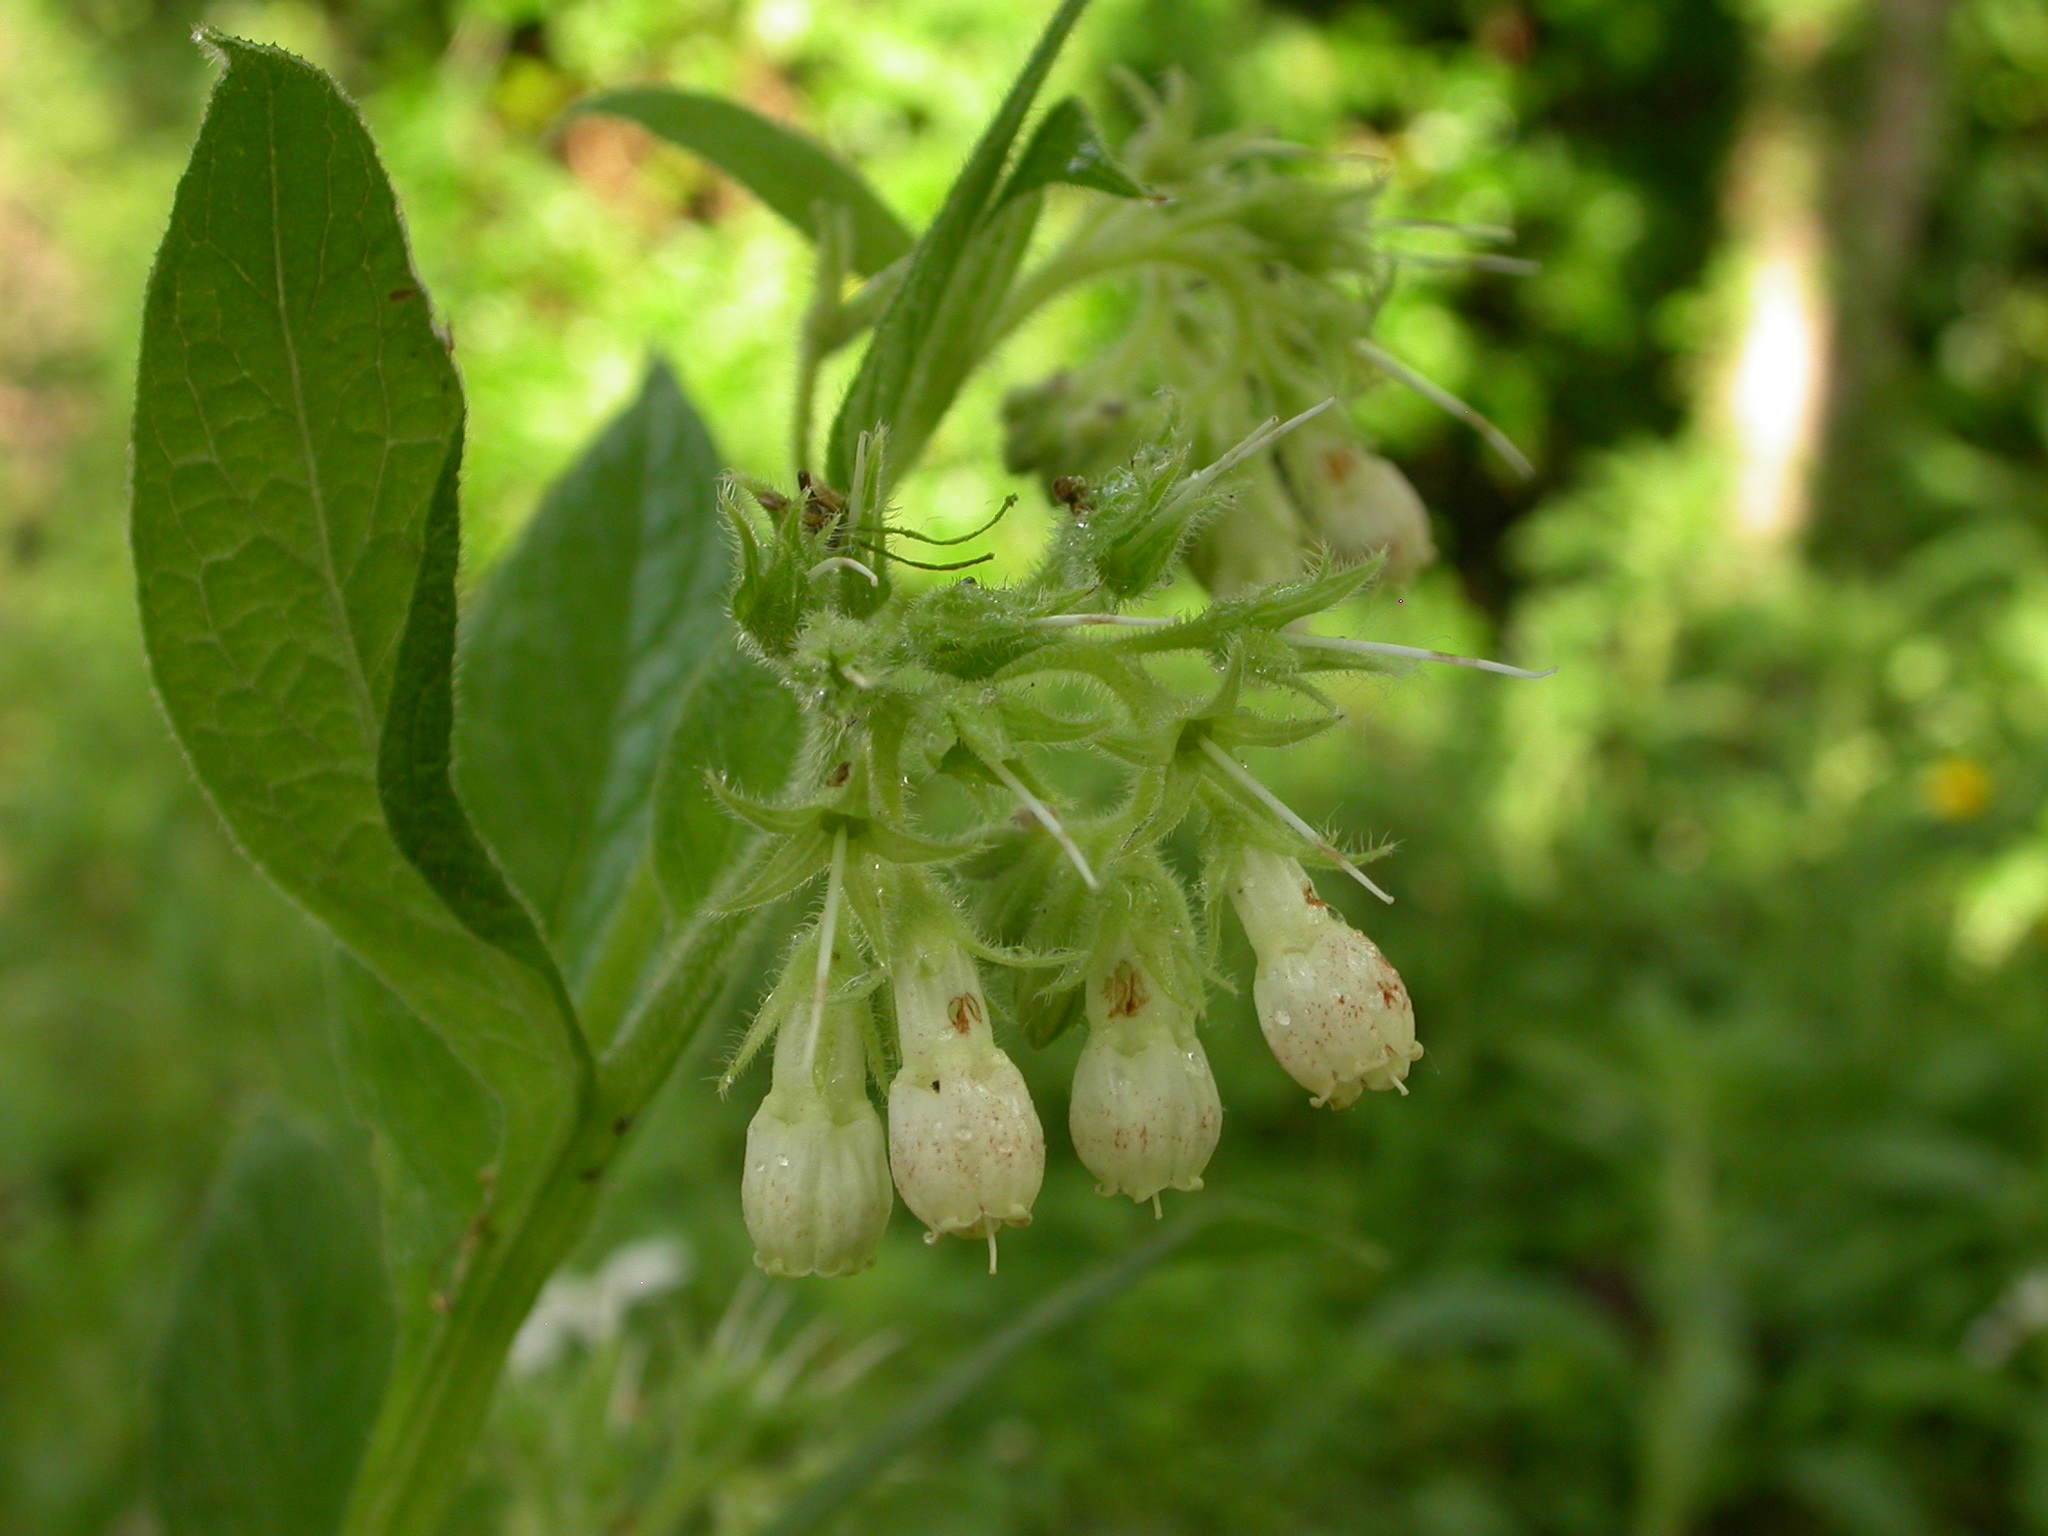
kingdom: Plantae
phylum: Tracheophyta
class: Magnoliopsida
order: Boraginales
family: Boraginaceae
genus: Symphytum
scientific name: Symphytum officinale
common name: Common comfrey
